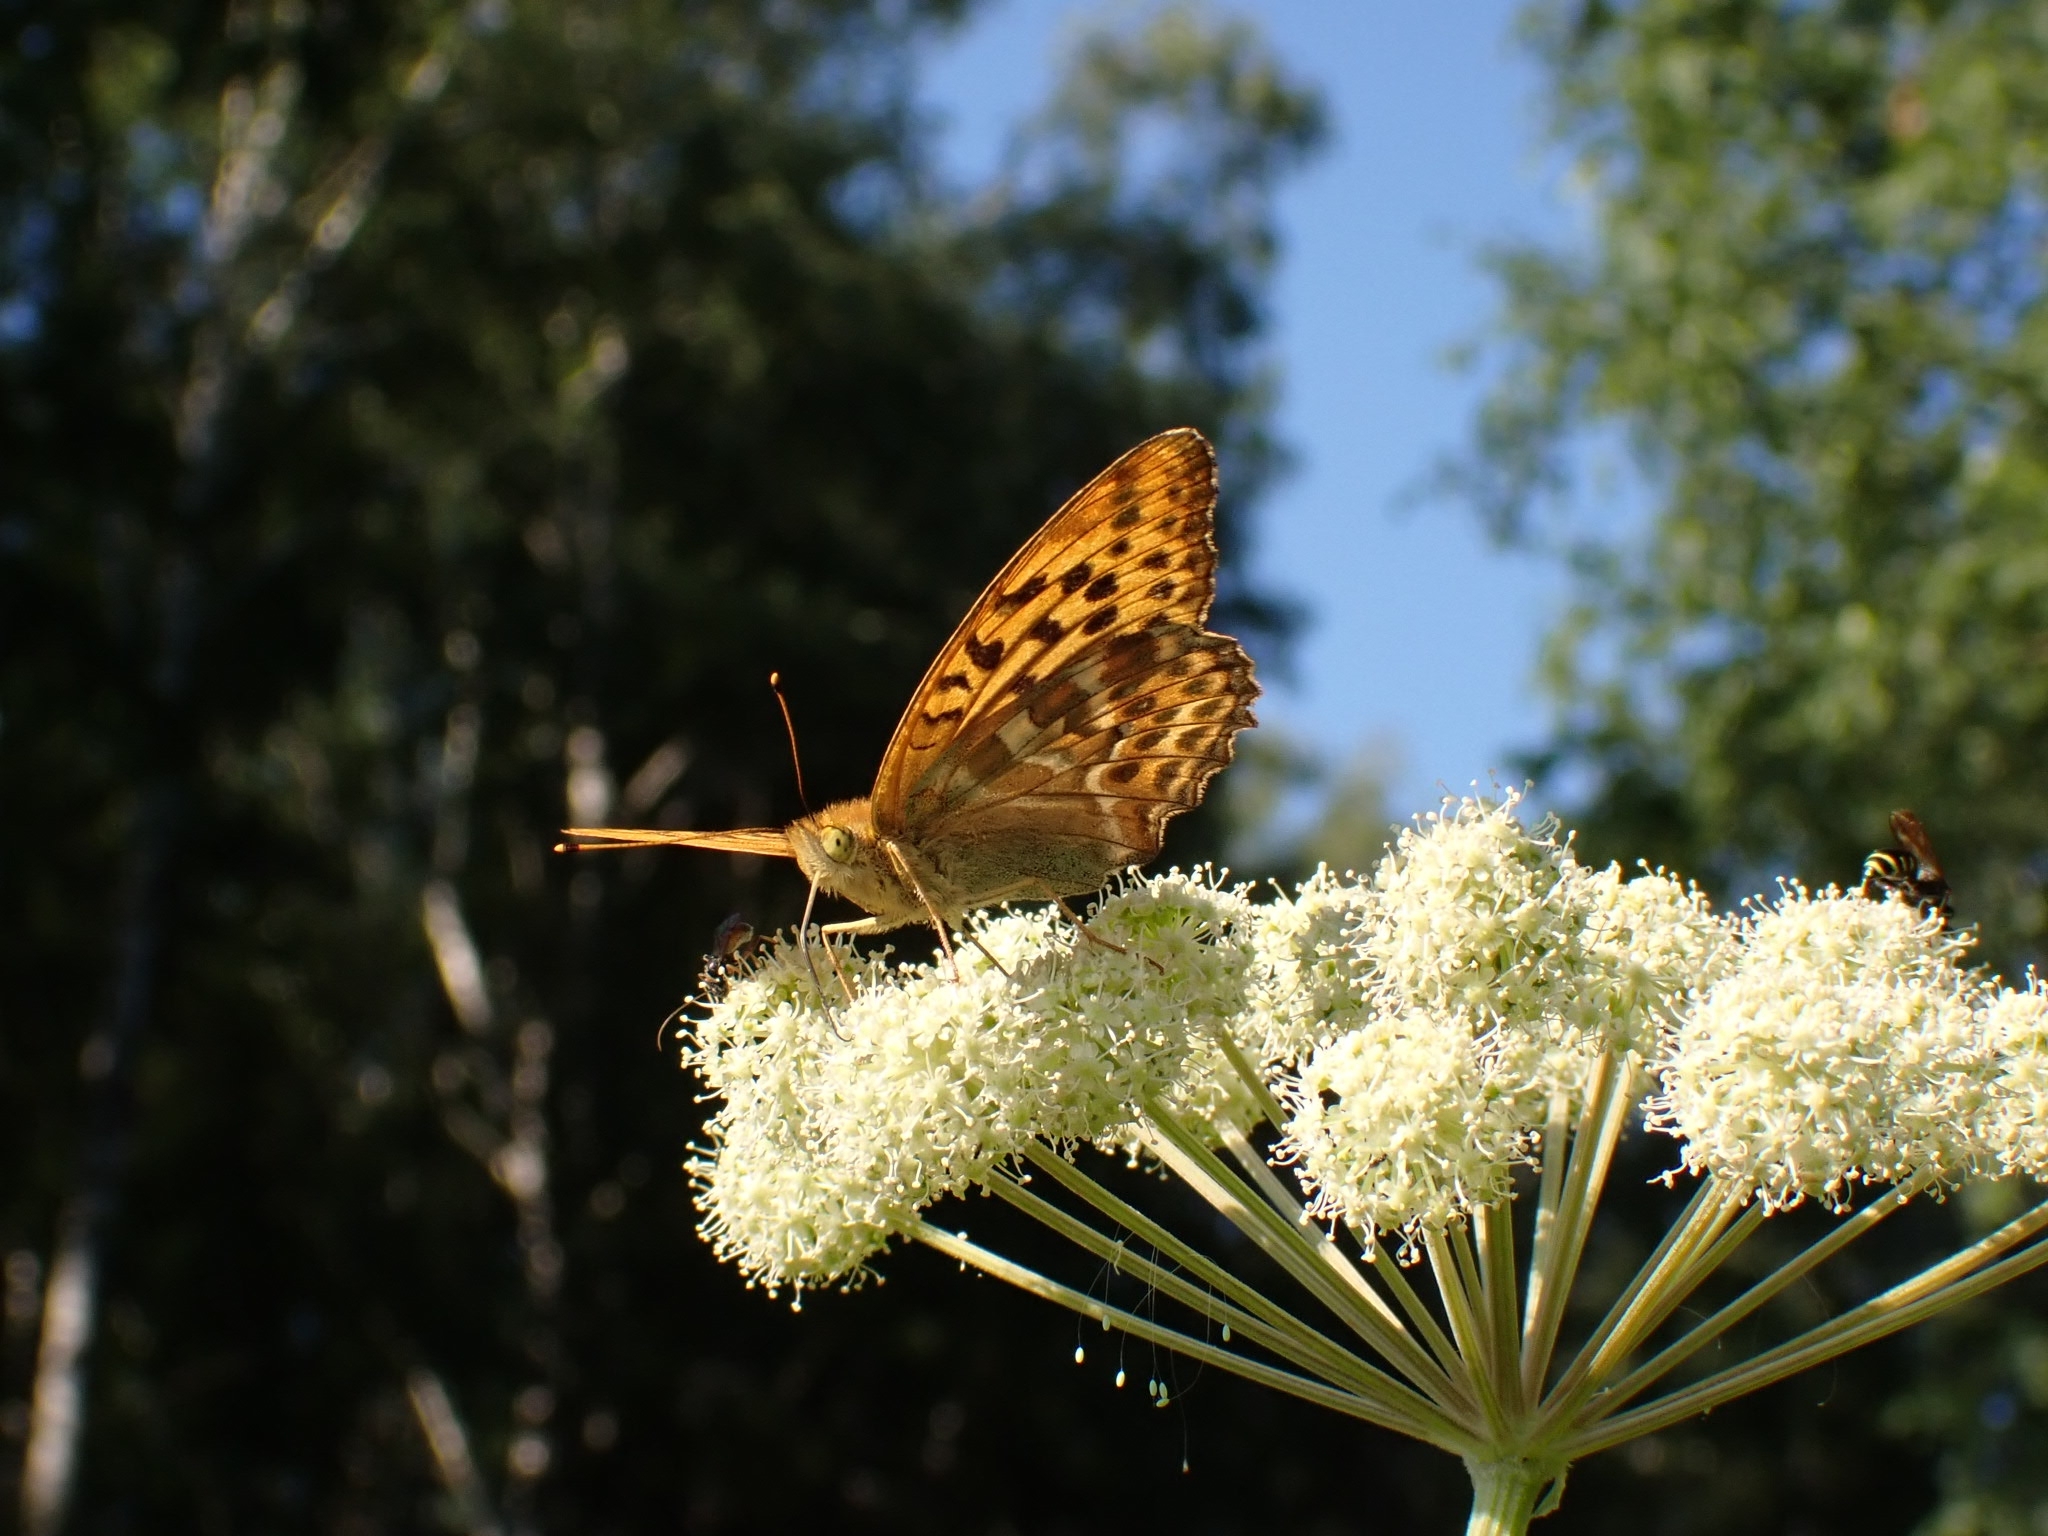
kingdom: Animalia
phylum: Arthropoda
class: Insecta
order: Lepidoptera
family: Nymphalidae
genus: Argynnis
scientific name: Argynnis paphia
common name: Silver-washed fritillary
